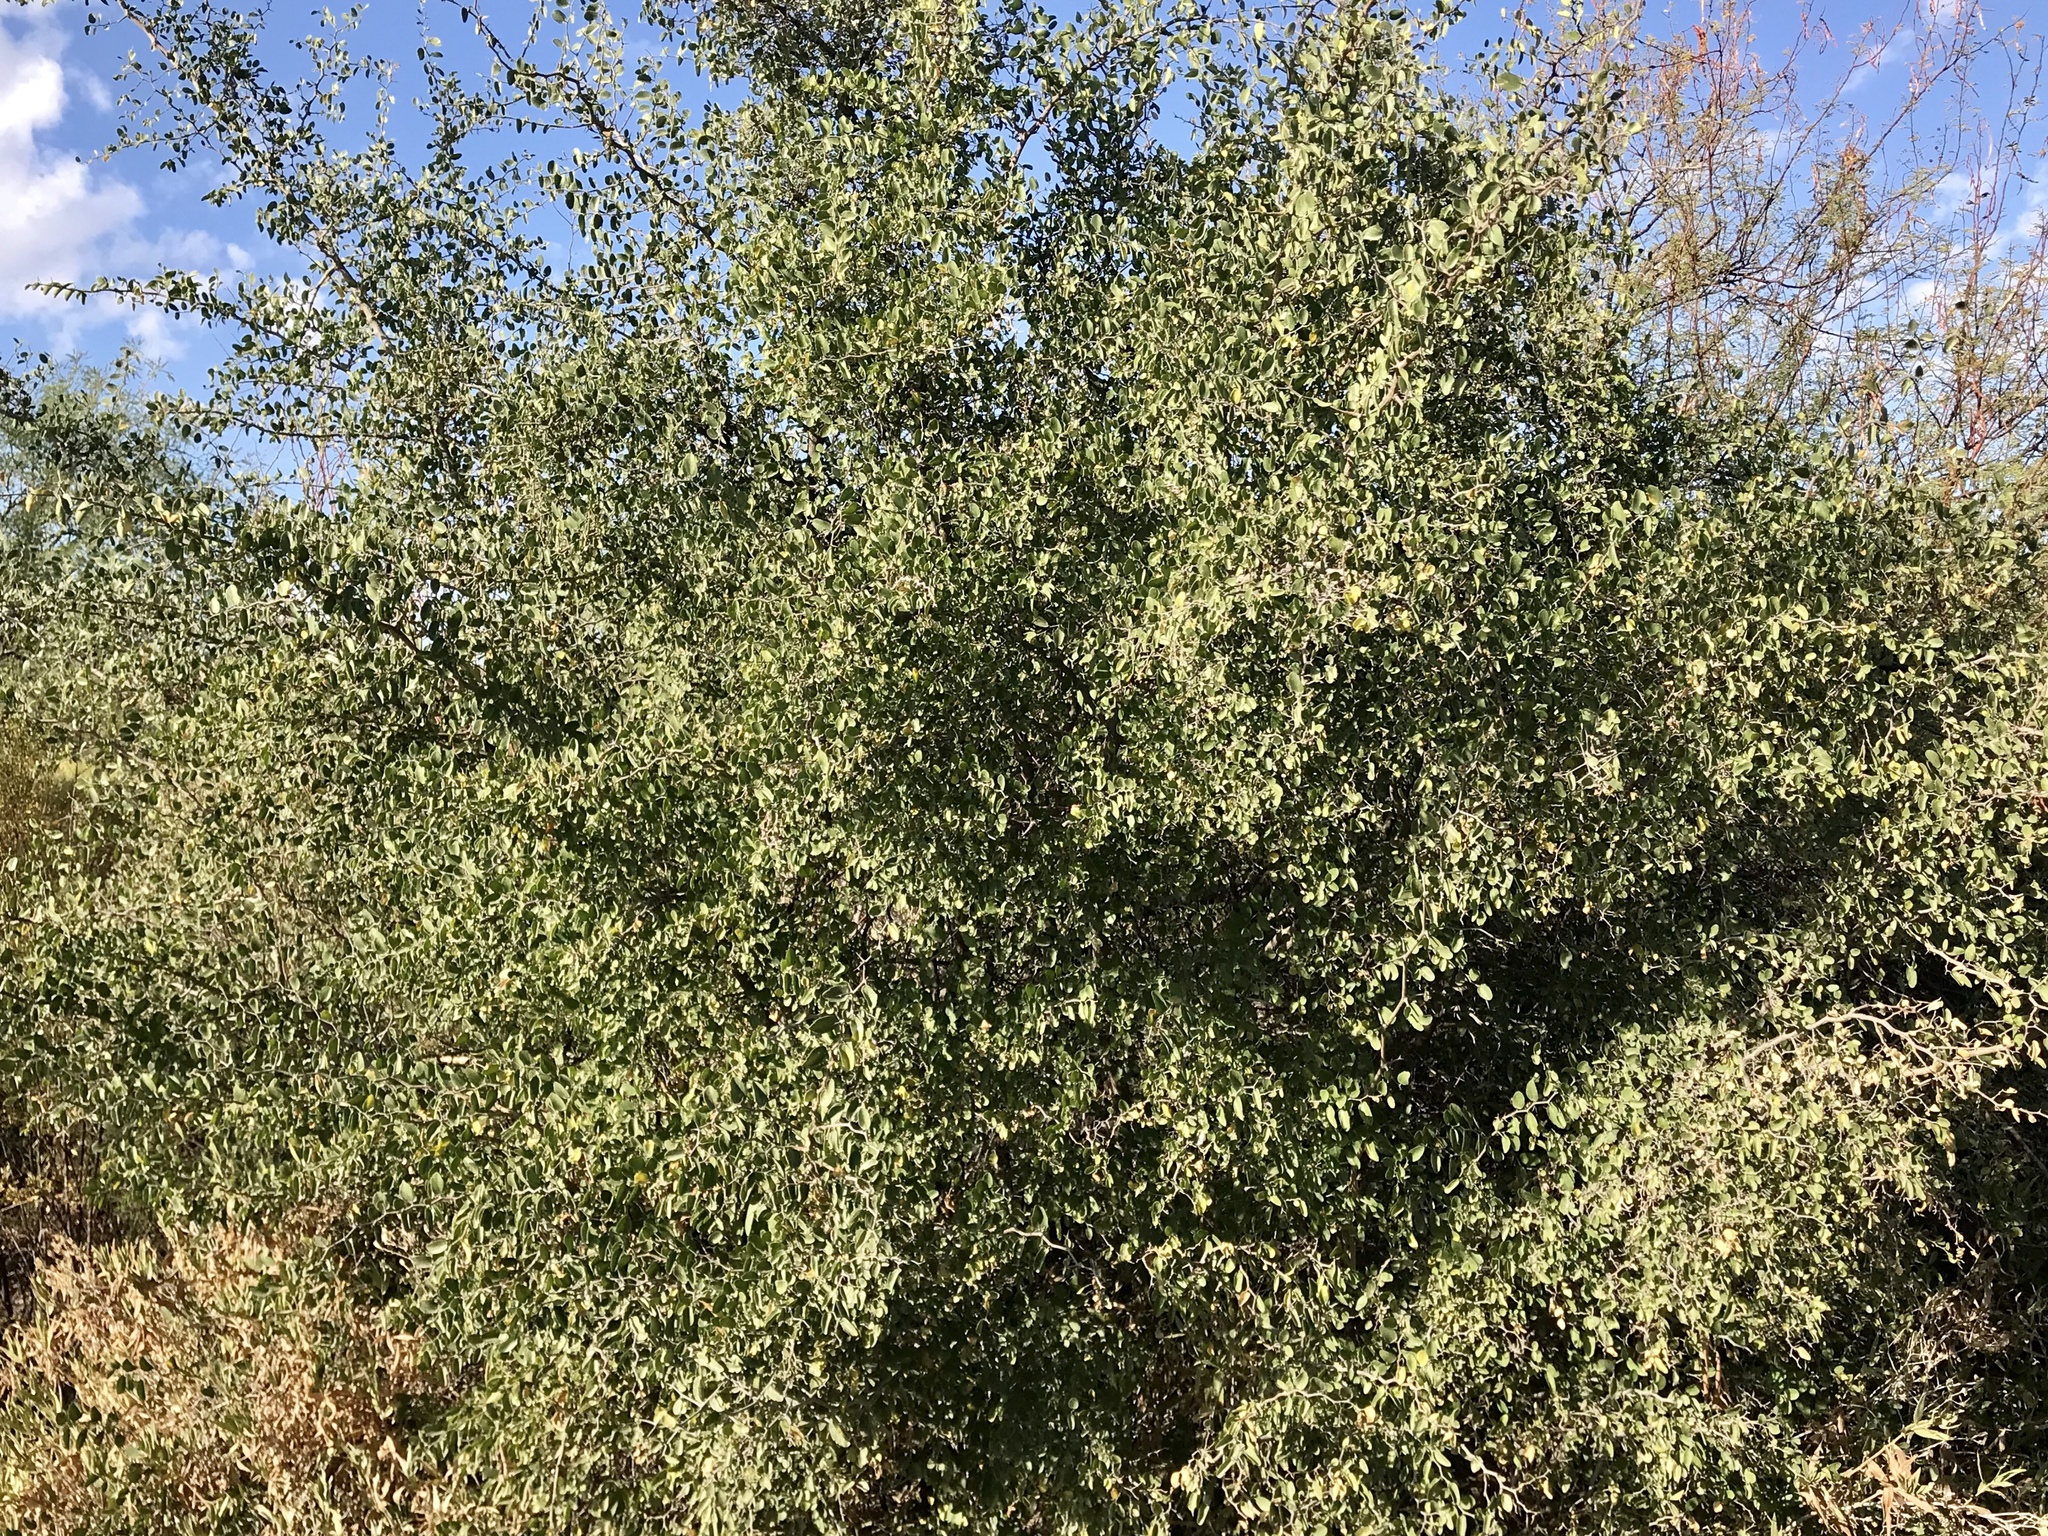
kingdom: Plantae
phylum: Tracheophyta
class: Magnoliopsida
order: Rosales
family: Cannabaceae
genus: Celtis
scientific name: Celtis pallida
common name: Desert hackberry
